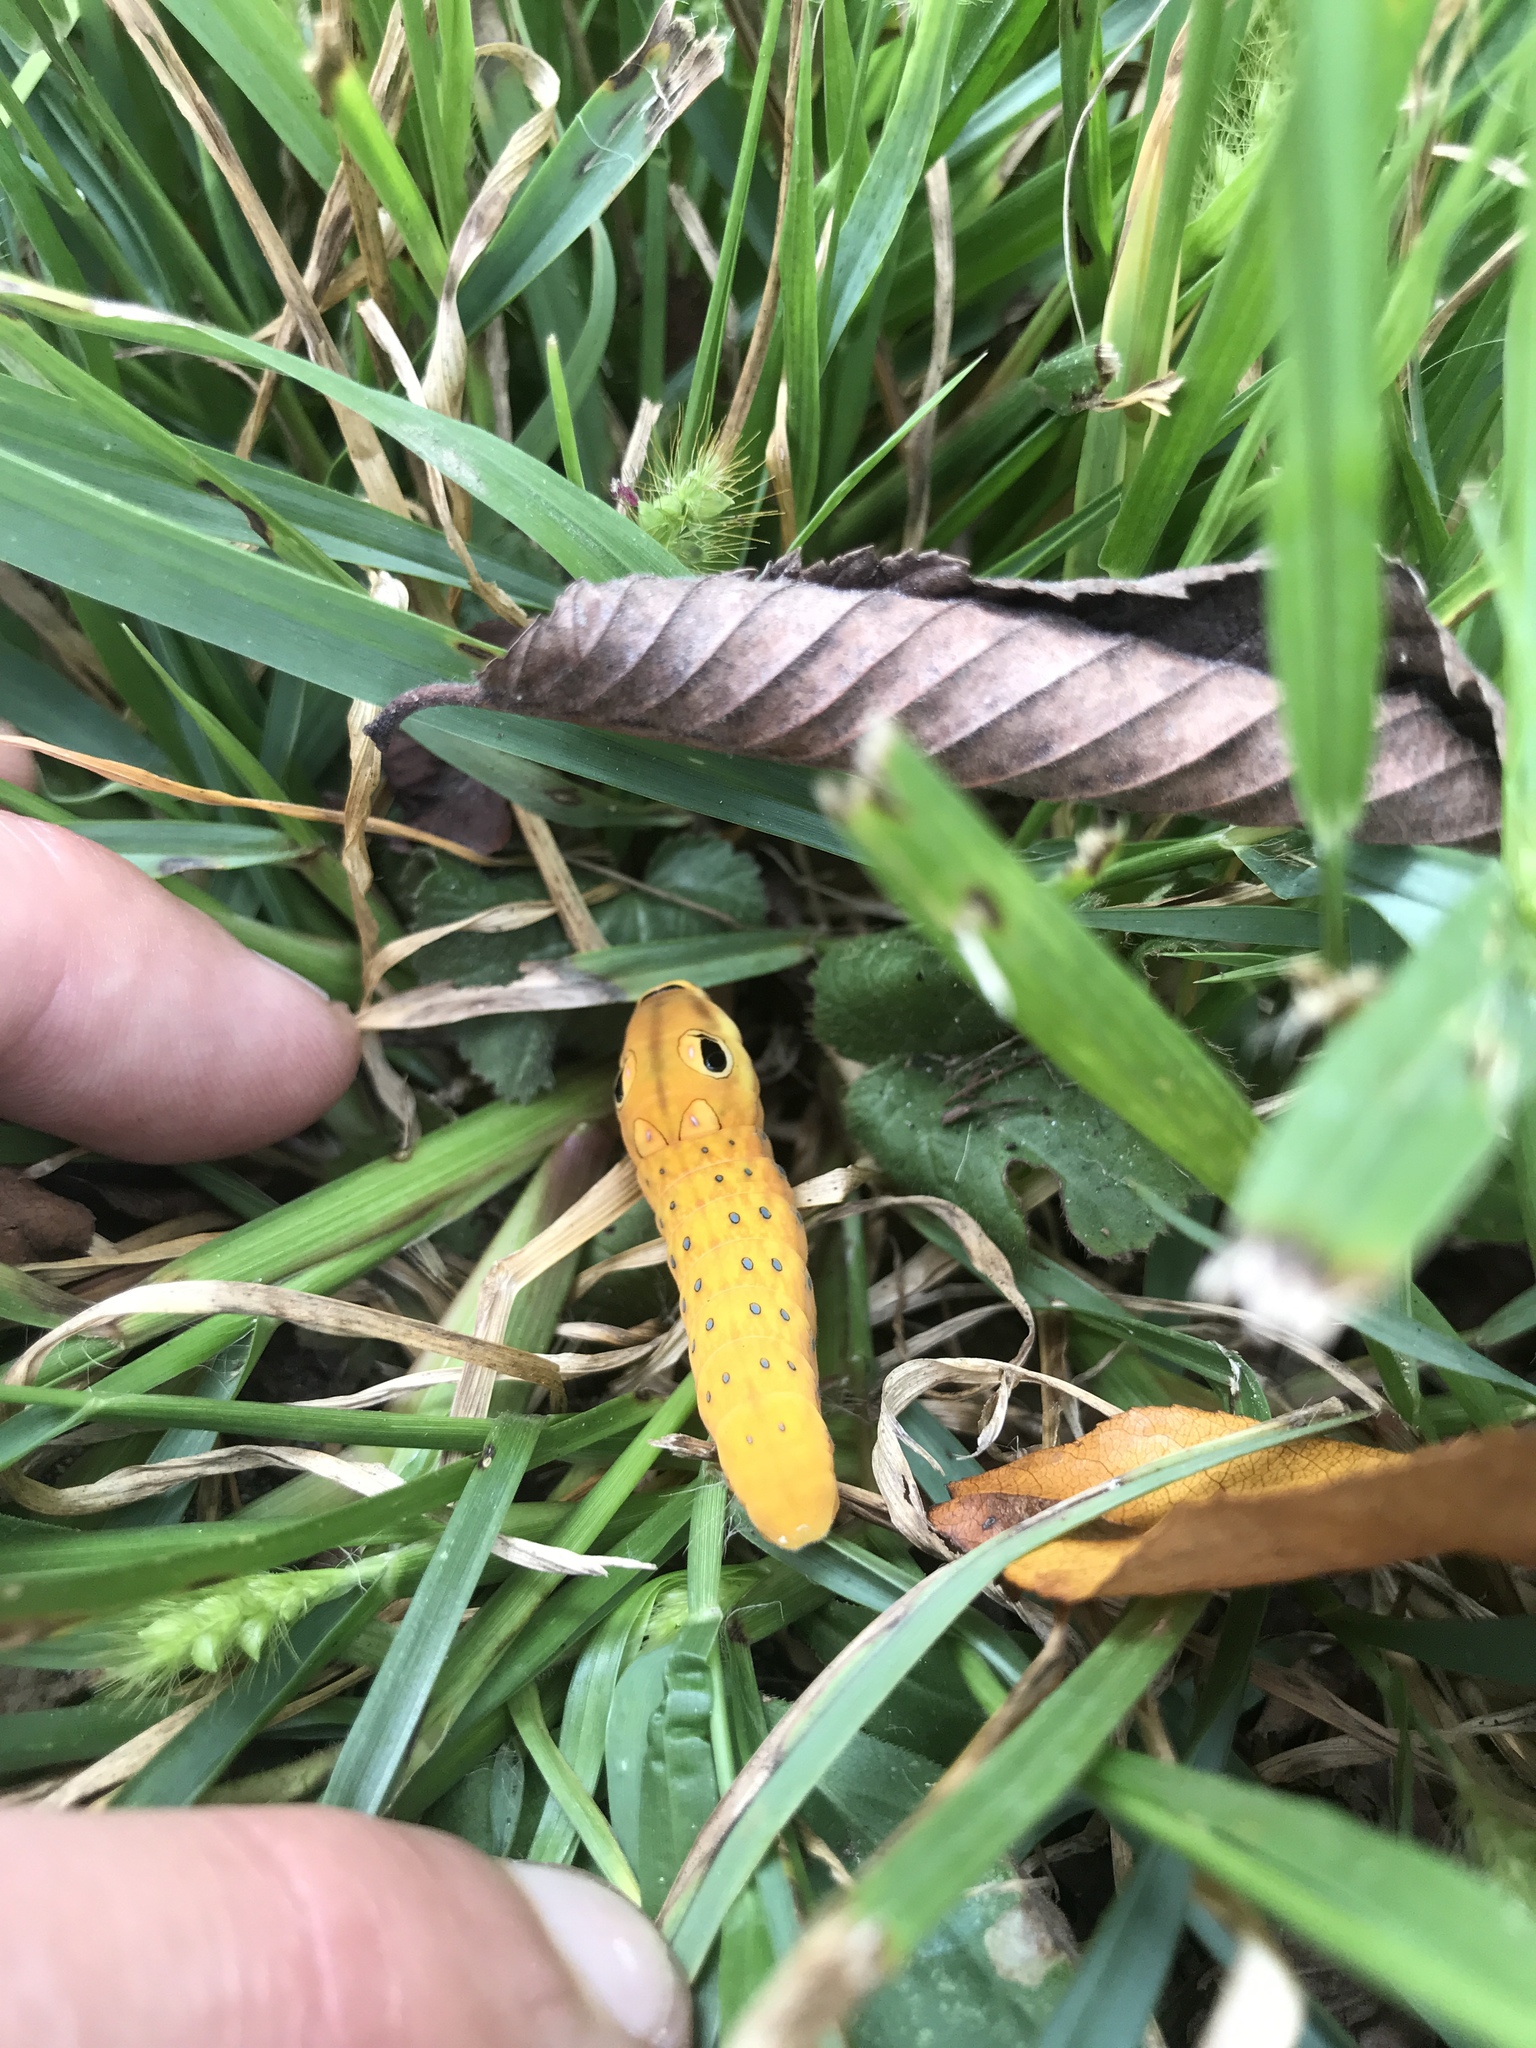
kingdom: Animalia
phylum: Arthropoda
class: Insecta
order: Lepidoptera
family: Papilionidae
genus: Papilio
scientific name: Papilio troilus
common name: Spicebush swallowtail
